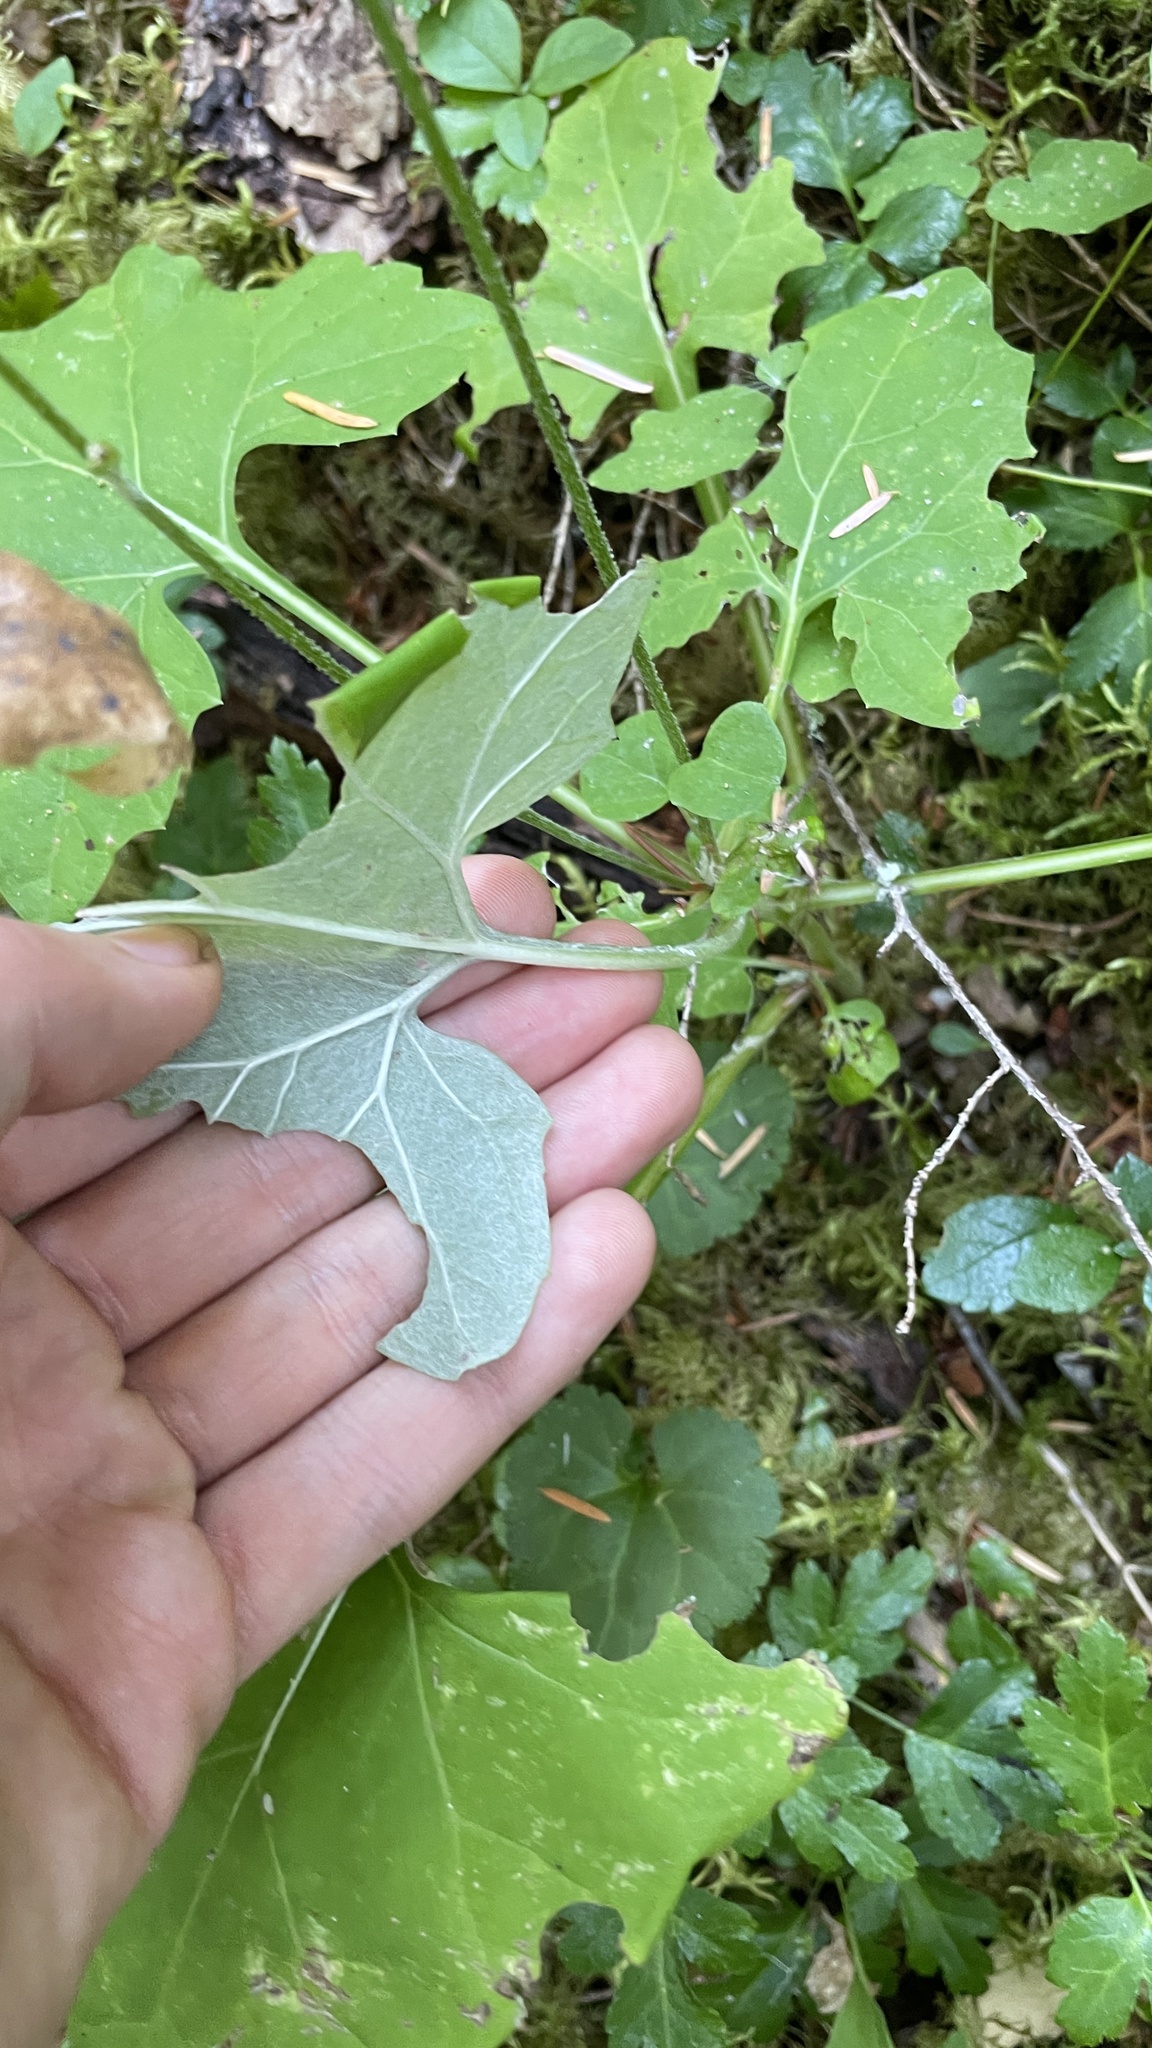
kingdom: Plantae
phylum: Tracheophyta
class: Magnoliopsida
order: Asterales
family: Asteraceae
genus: Adenocaulon
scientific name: Adenocaulon bicolor
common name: Trailplant
